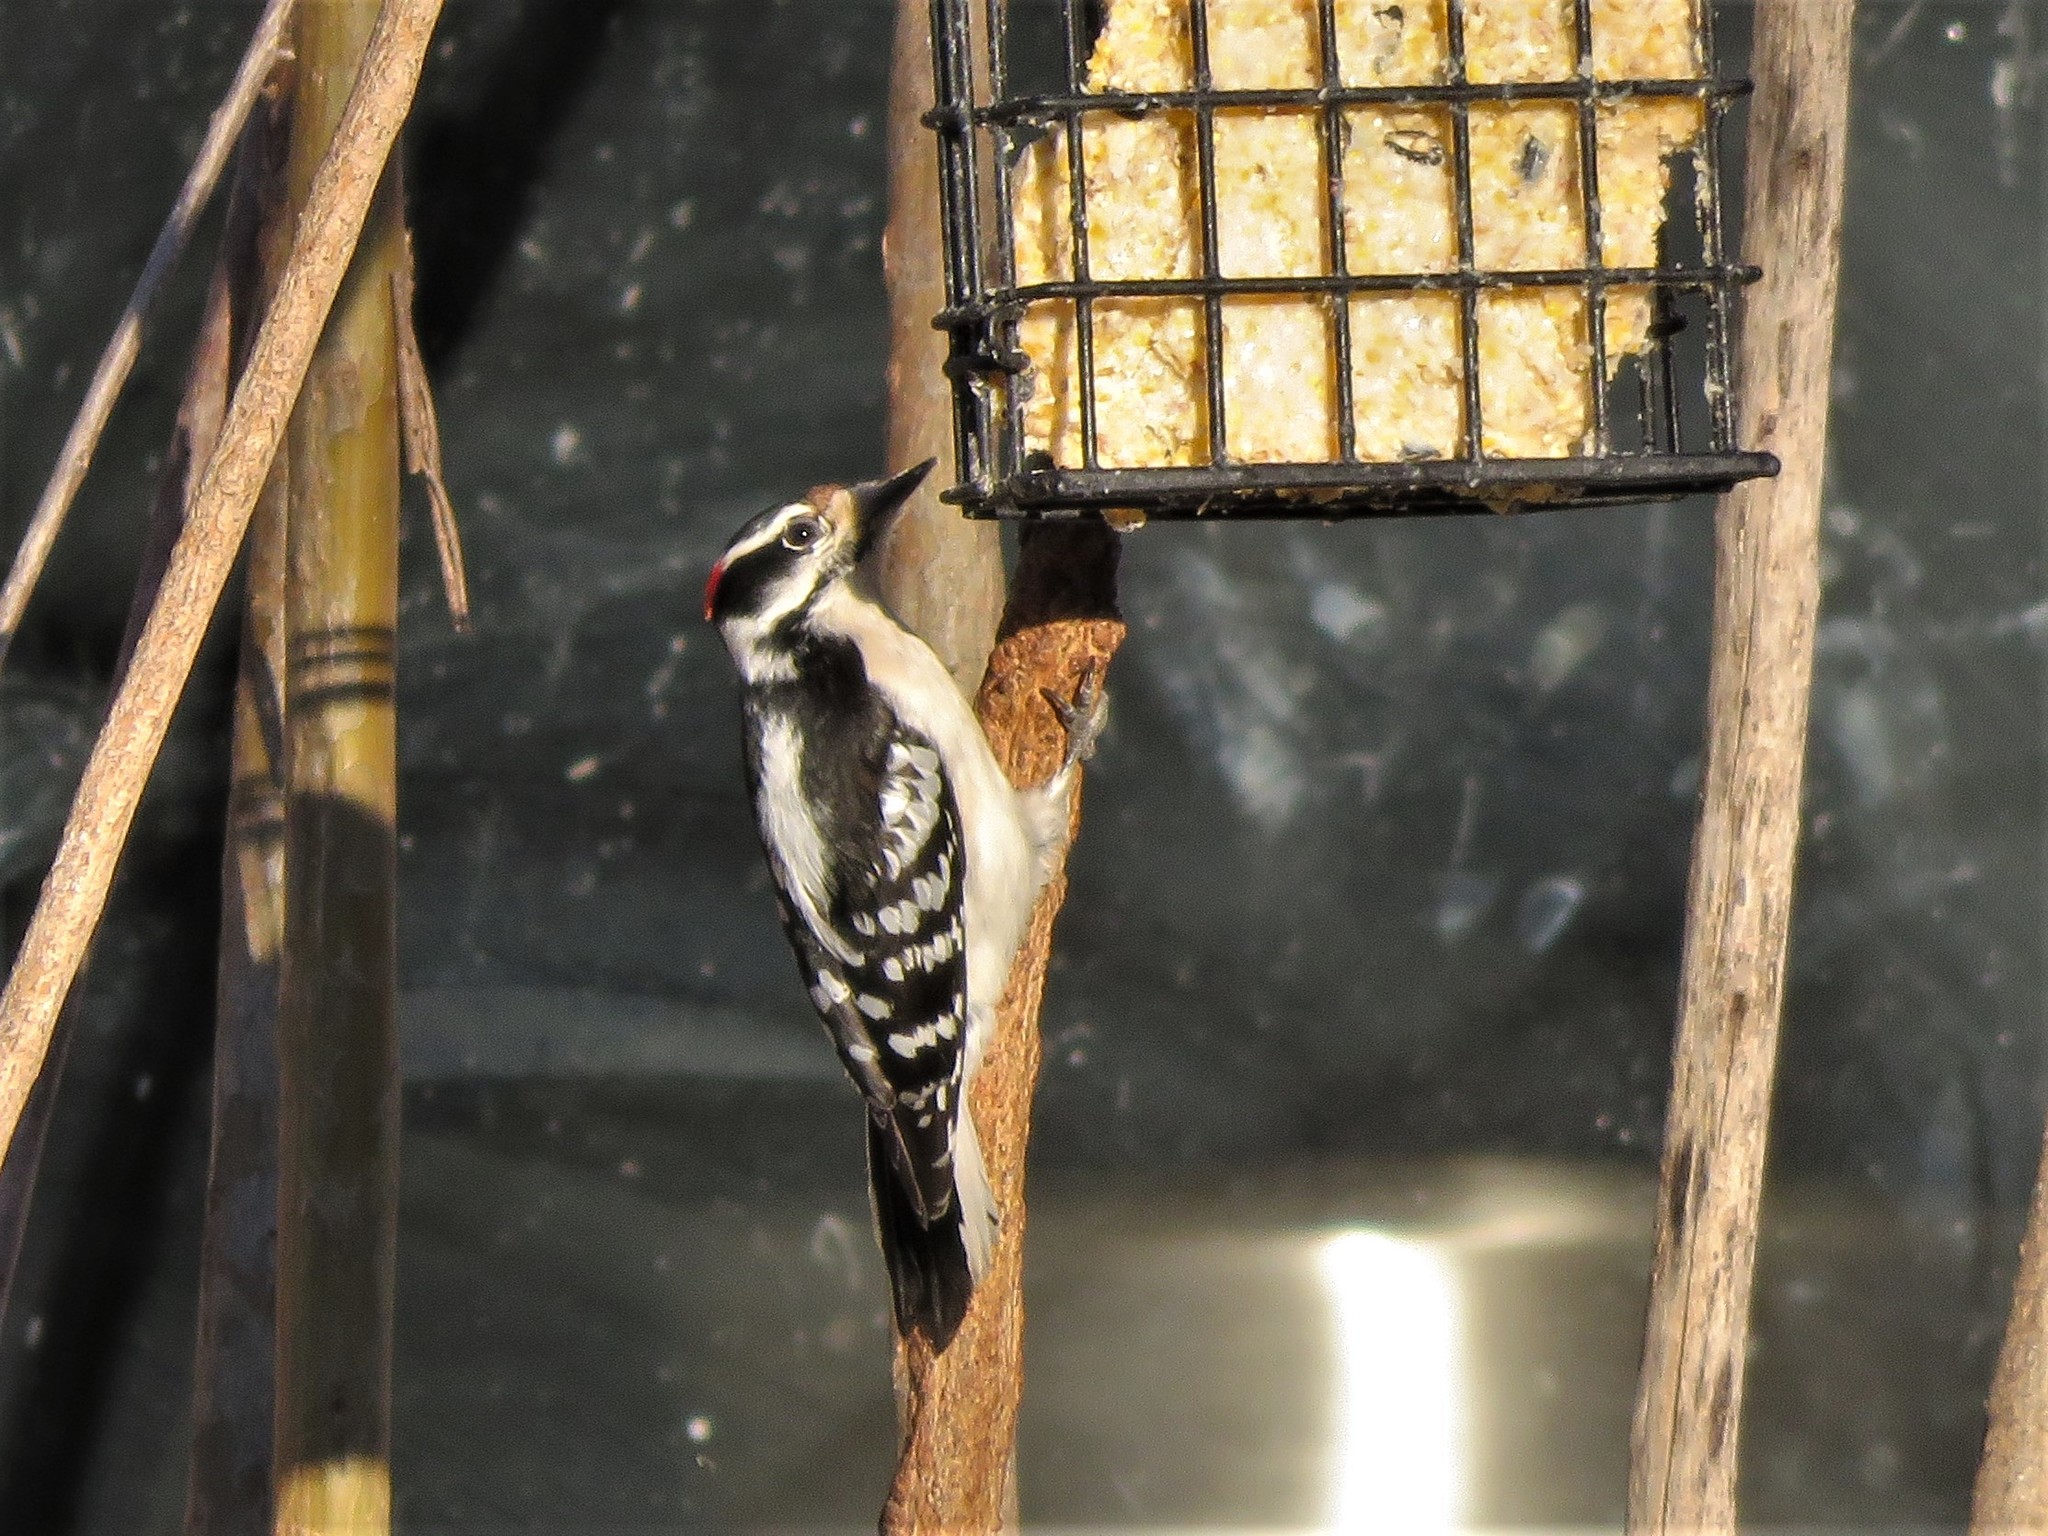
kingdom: Animalia
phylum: Chordata
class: Aves
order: Piciformes
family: Picidae
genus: Dryobates
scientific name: Dryobates pubescens
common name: Downy woodpecker
